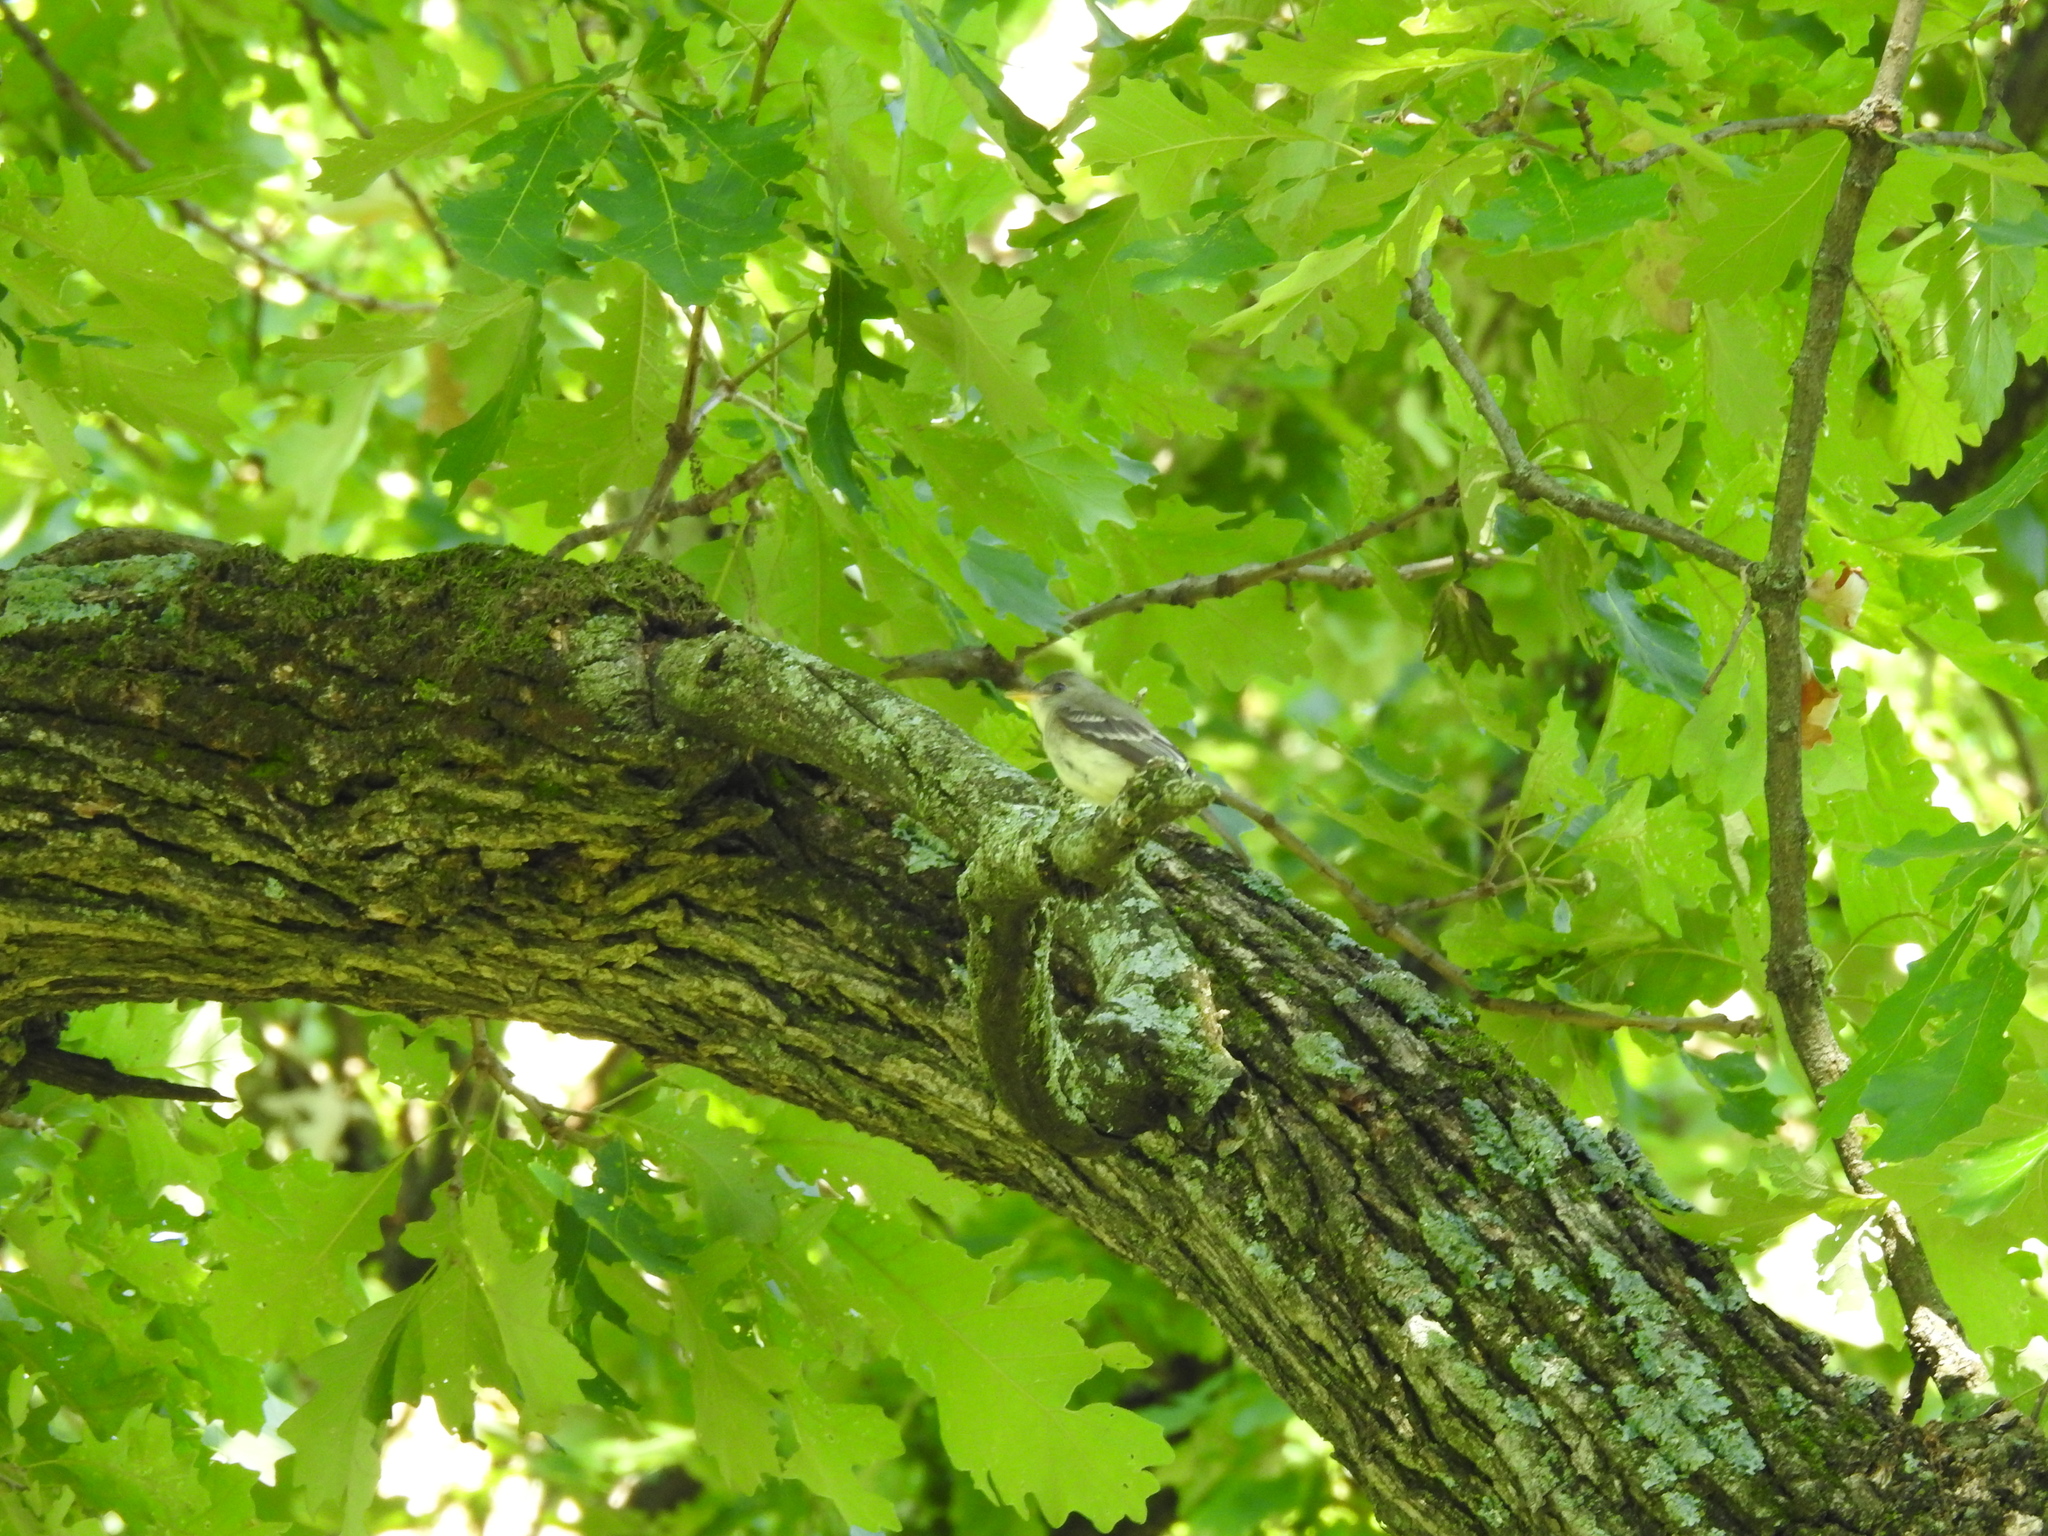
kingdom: Animalia
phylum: Chordata
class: Aves
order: Passeriformes
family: Tyrannidae
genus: Contopus
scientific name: Contopus virens
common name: Eastern wood-pewee
